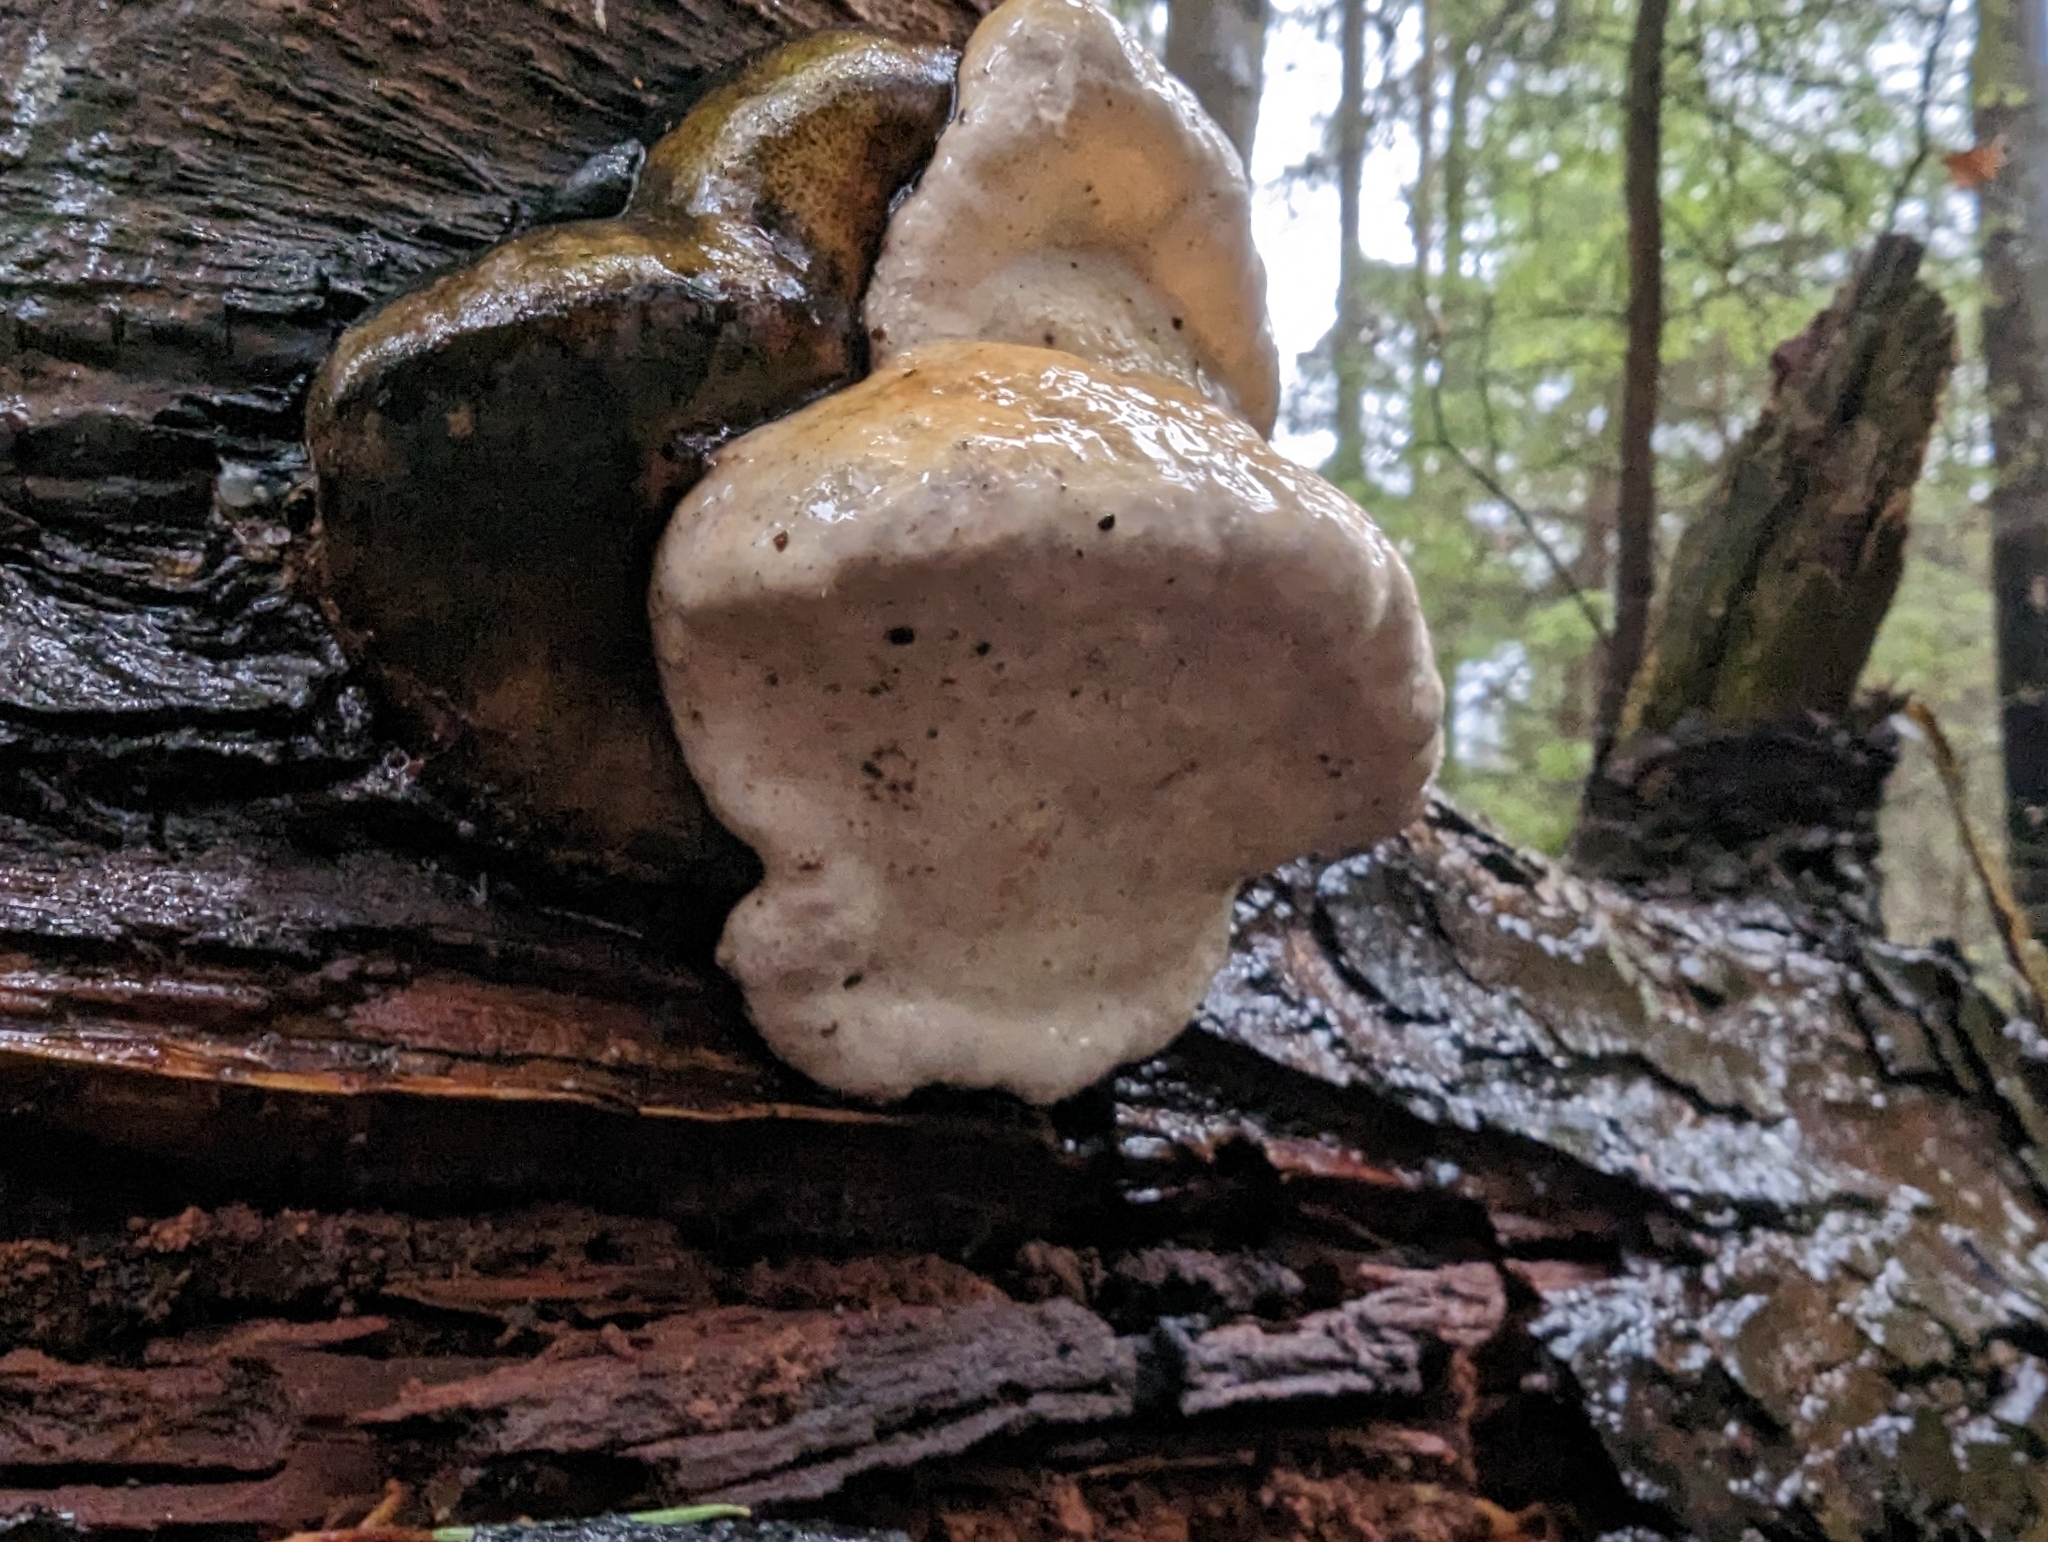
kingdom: Fungi
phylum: Basidiomycota
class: Agaricomycetes
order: Polyporales
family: Fomitopsidaceae
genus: Fomitopsis
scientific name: Fomitopsis mounceae
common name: Northern red belt
